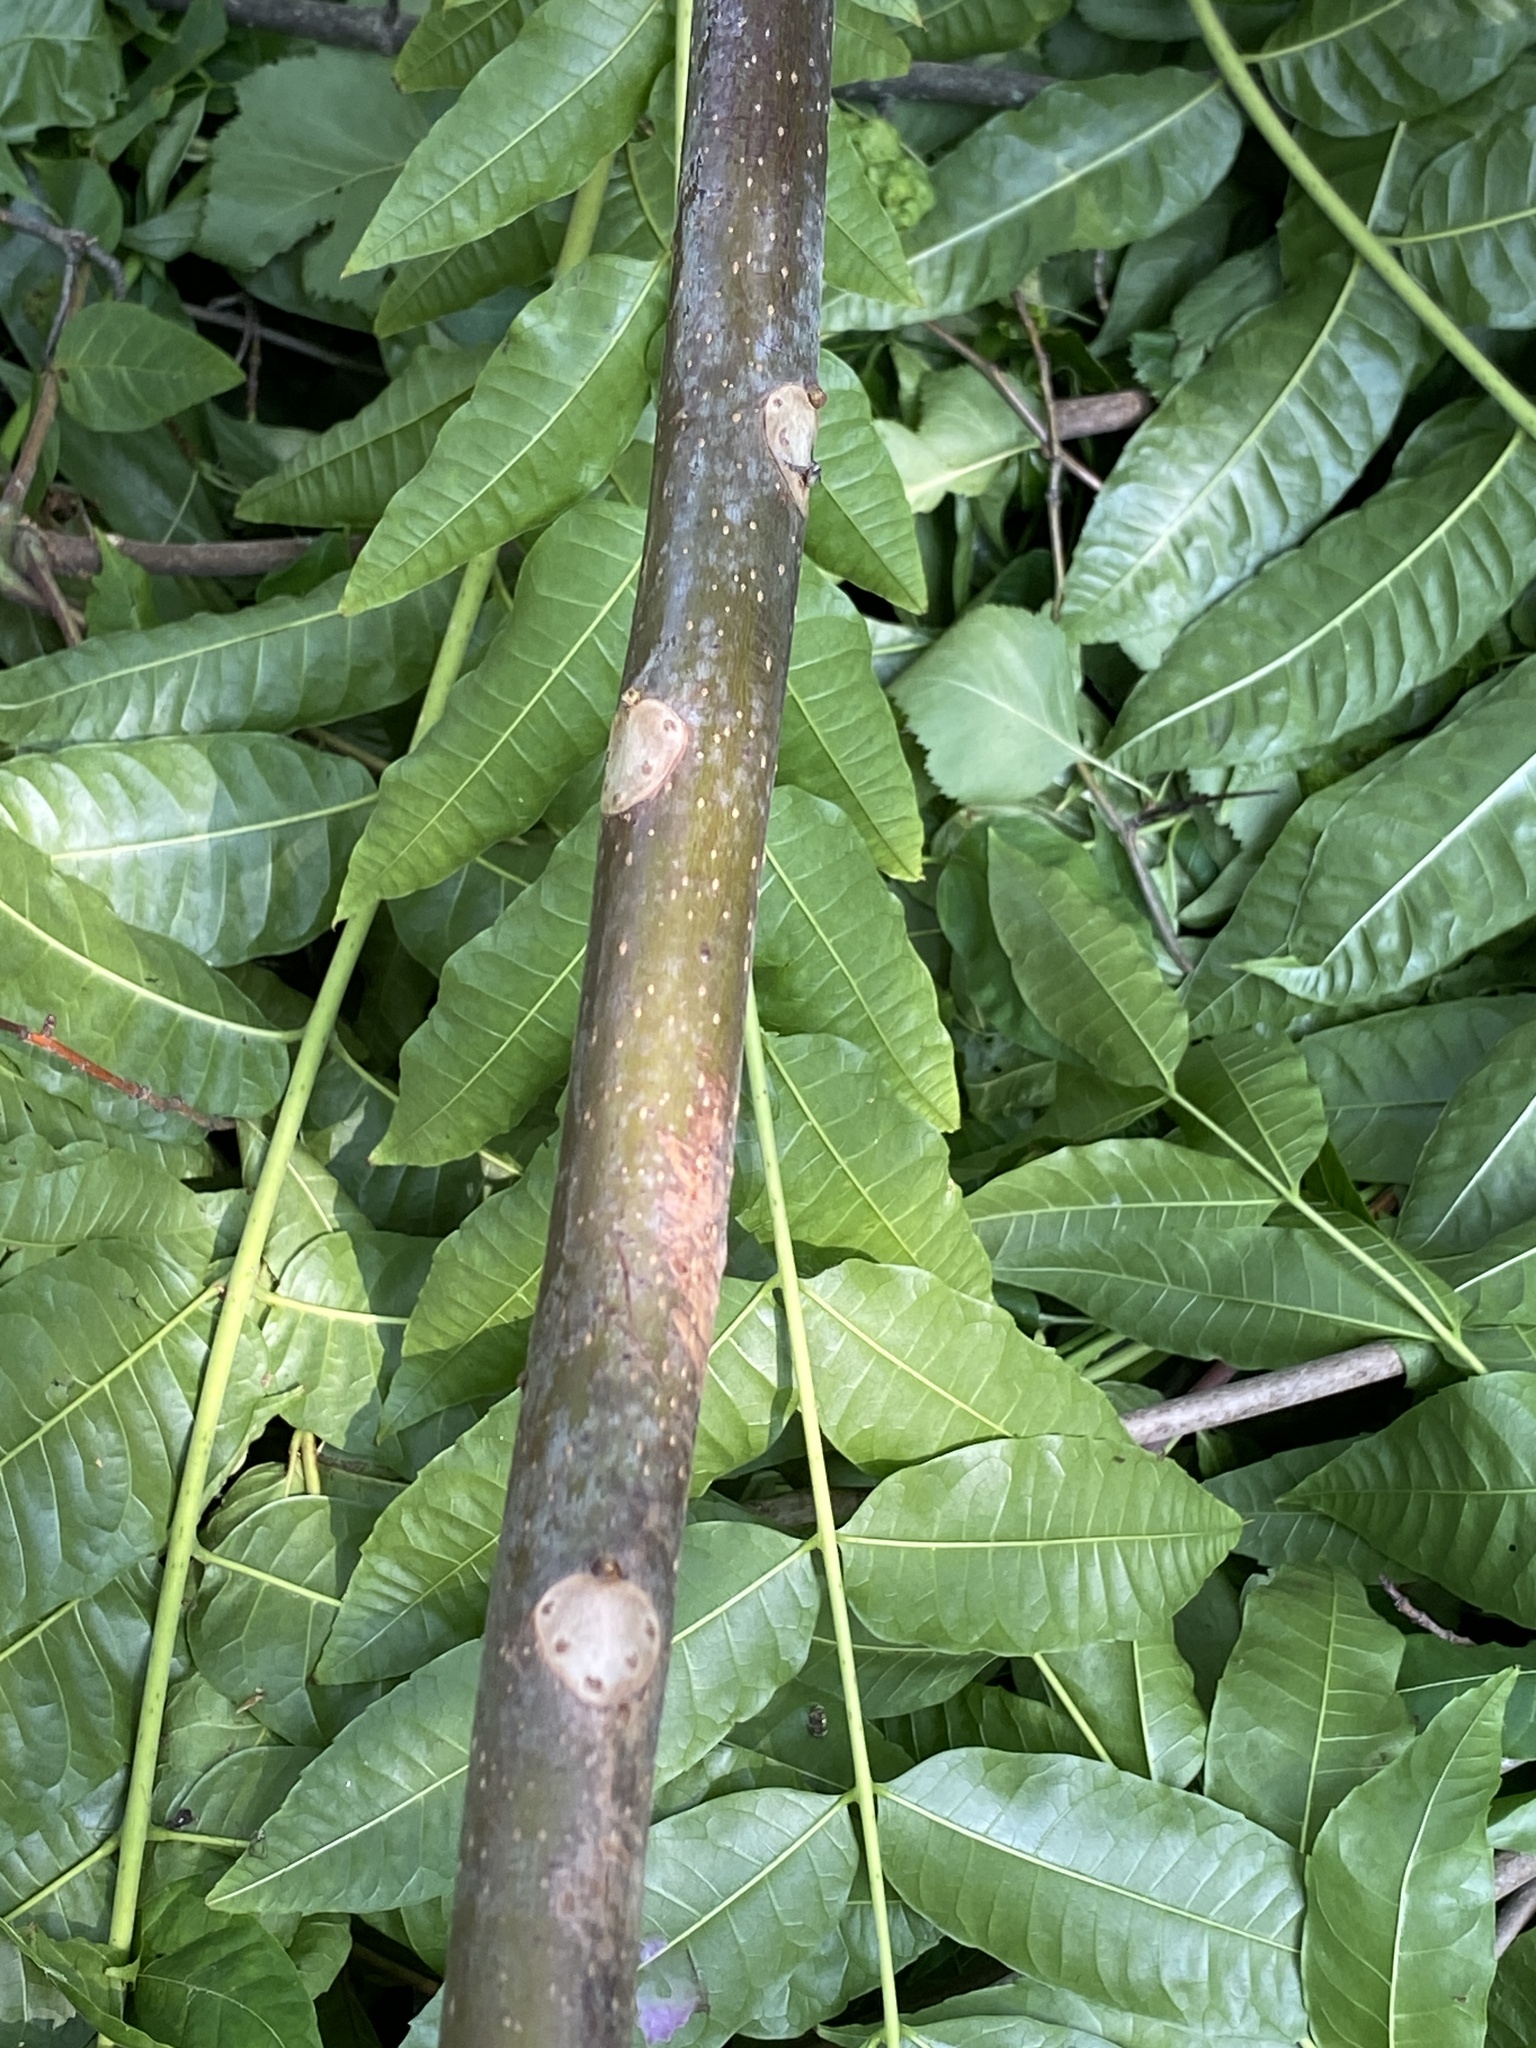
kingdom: Plantae
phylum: Tracheophyta
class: Magnoliopsida
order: Sapindales
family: Simaroubaceae
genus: Ailanthus
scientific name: Ailanthus altissima
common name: Tree-of-heaven
